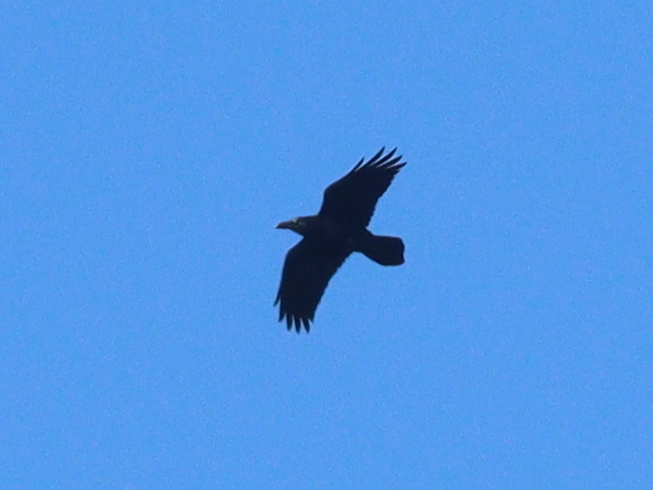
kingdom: Animalia
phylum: Chordata
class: Aves
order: Passeriformes
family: Corvidae
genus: Corvus
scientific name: Corvus corax
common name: Common raven
